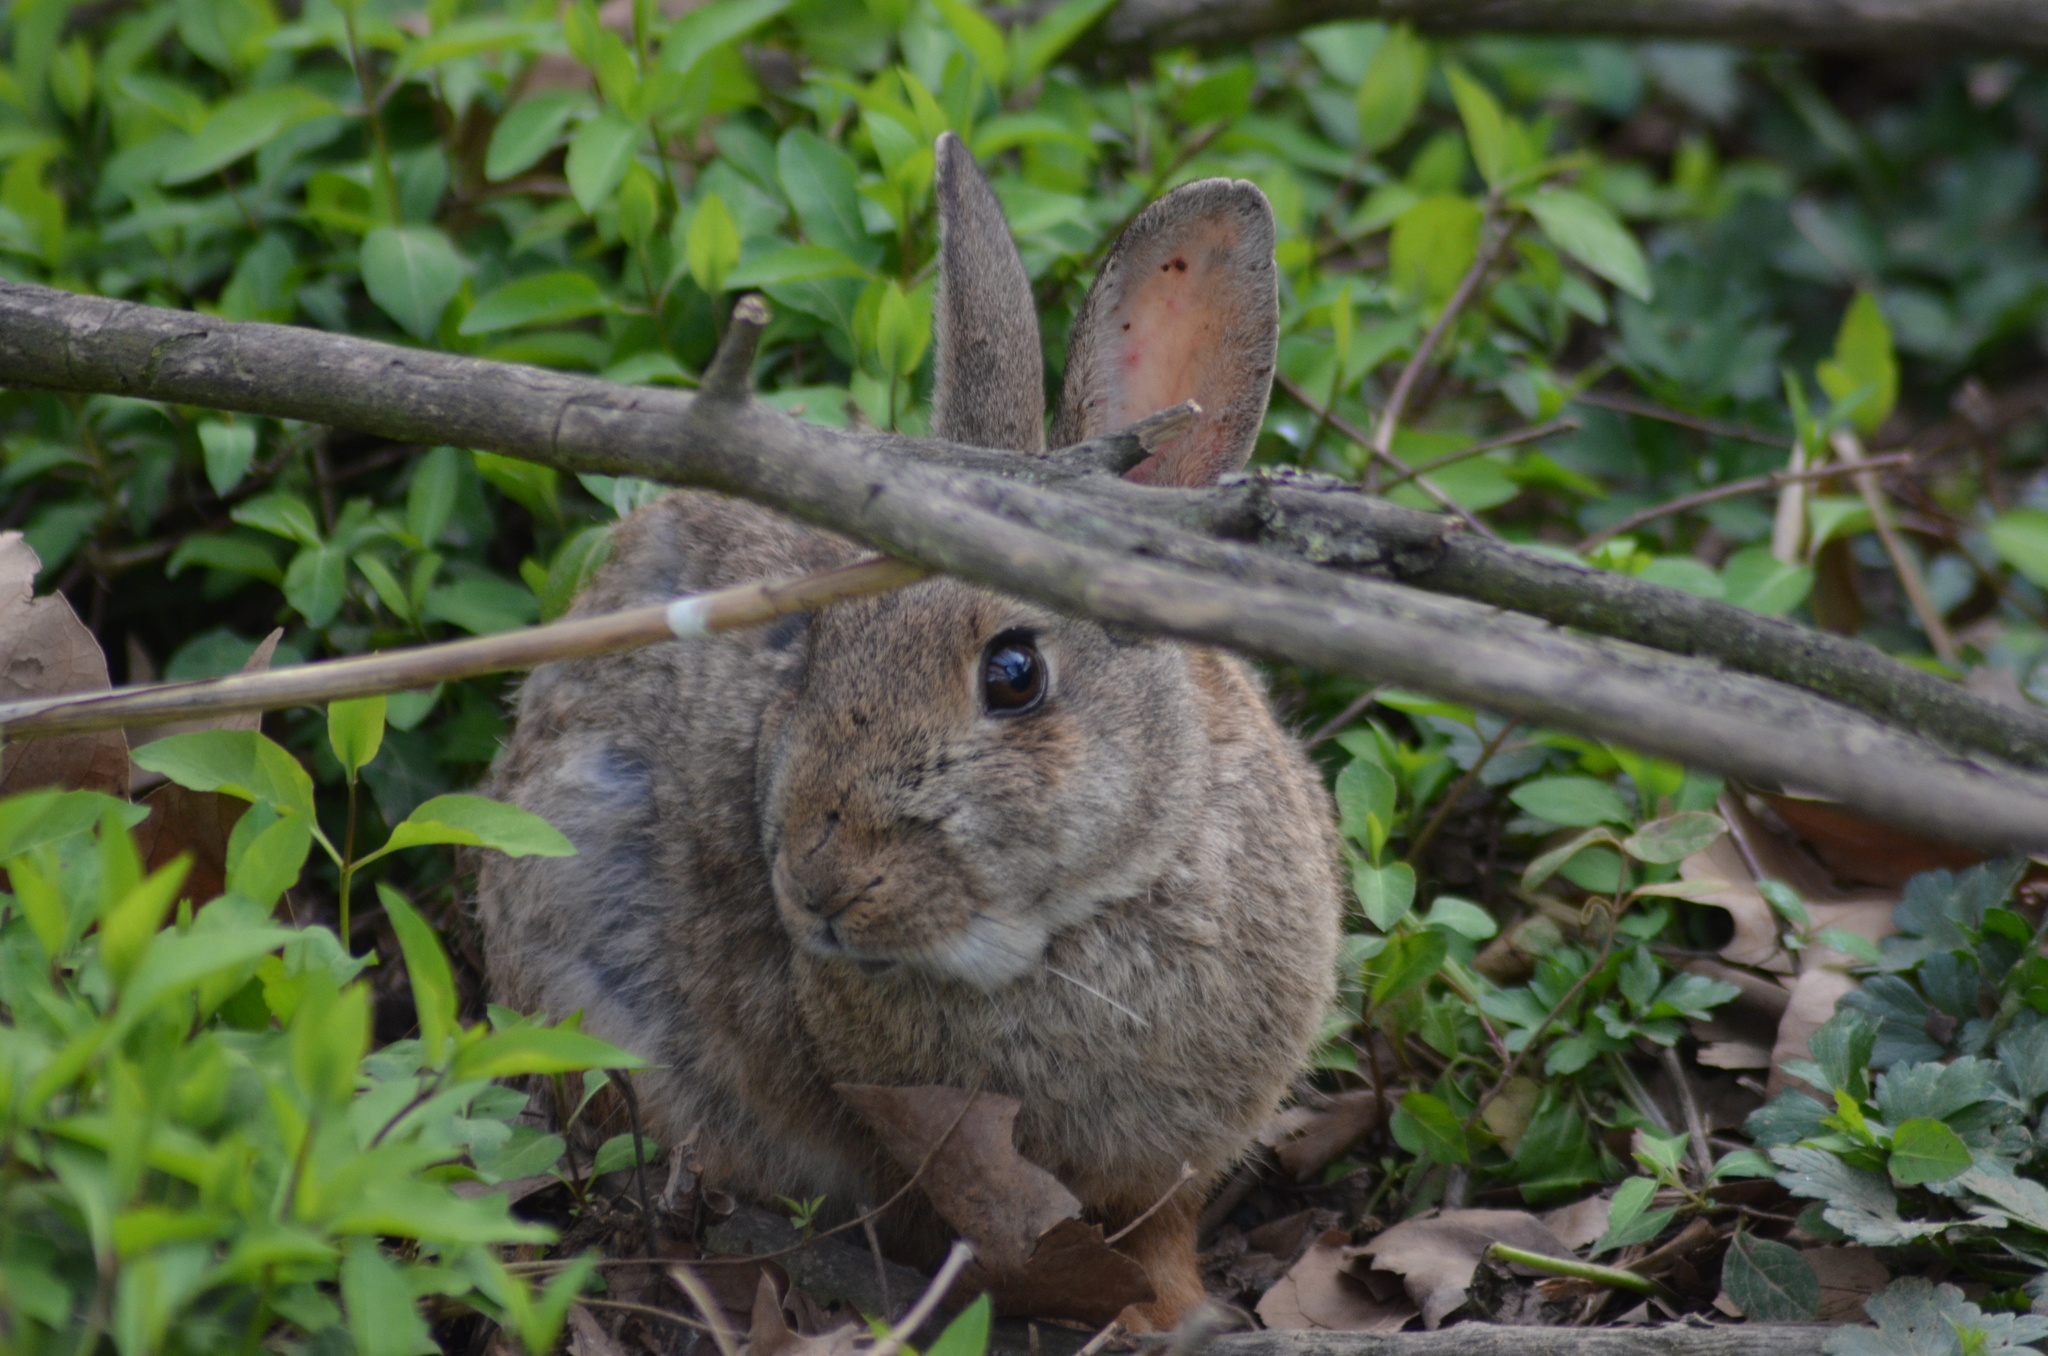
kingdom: Animalia
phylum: Chordata
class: Mammalia
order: Lagomorpha
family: Leporidae
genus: Oryctolagus
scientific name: Oryctolagus cuniculus
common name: European rabbit
